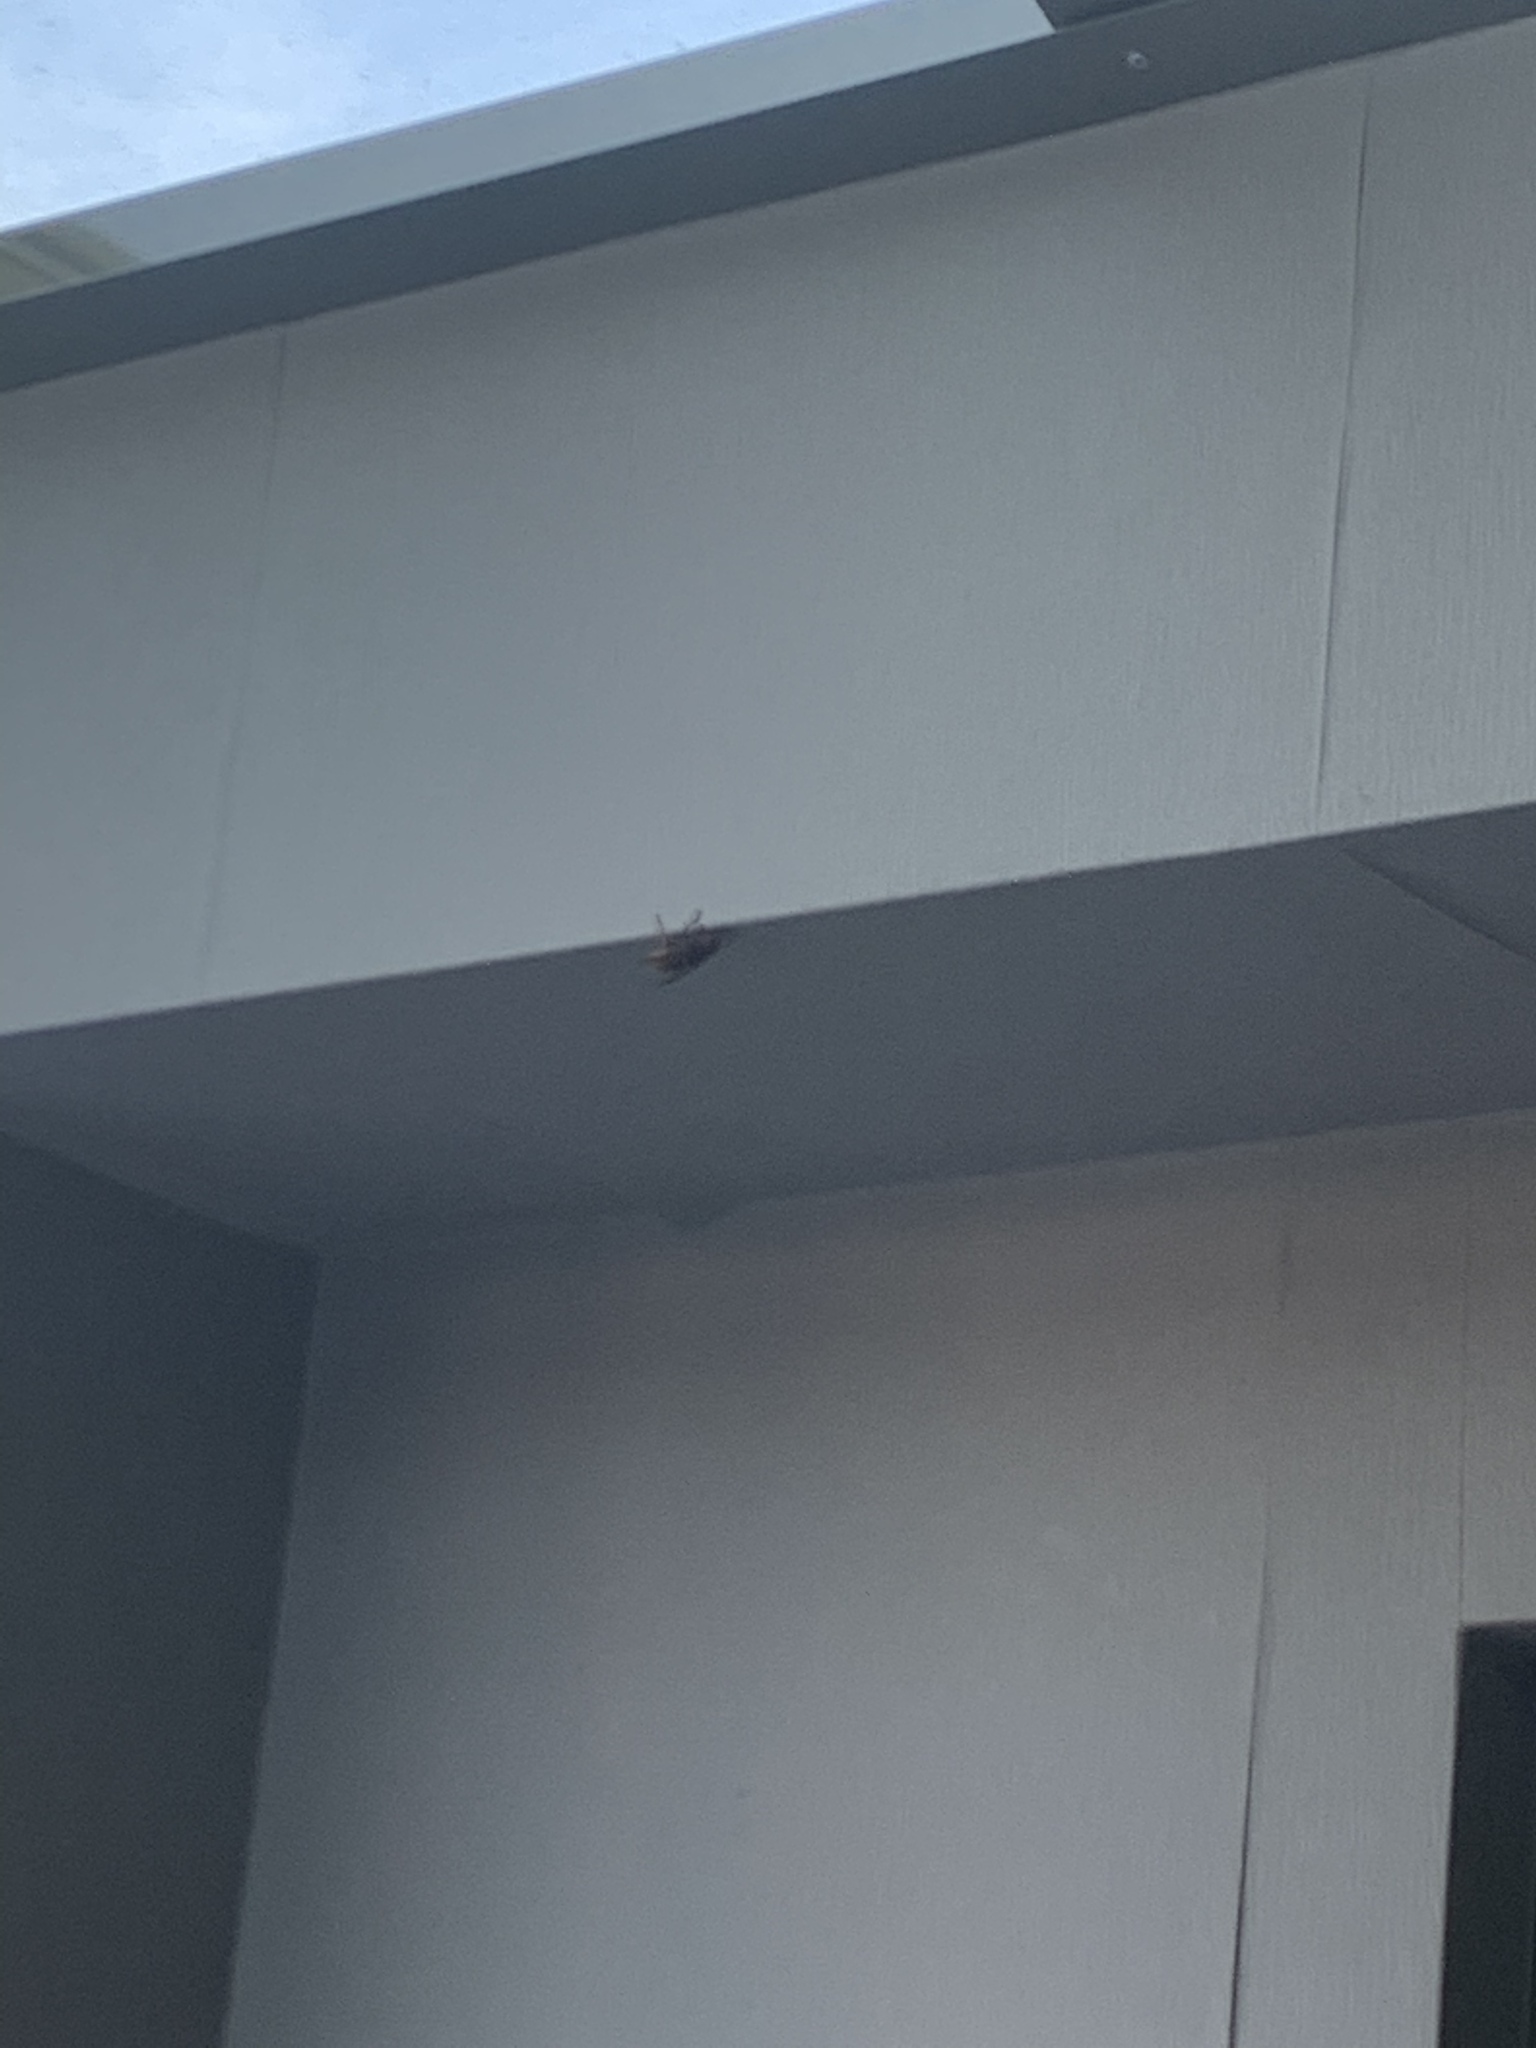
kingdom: Animalia
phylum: Arthropoda
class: Insecta
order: Hymenoptera
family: Vespidae
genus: Vespa
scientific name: Vespa crabro
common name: Hornet
